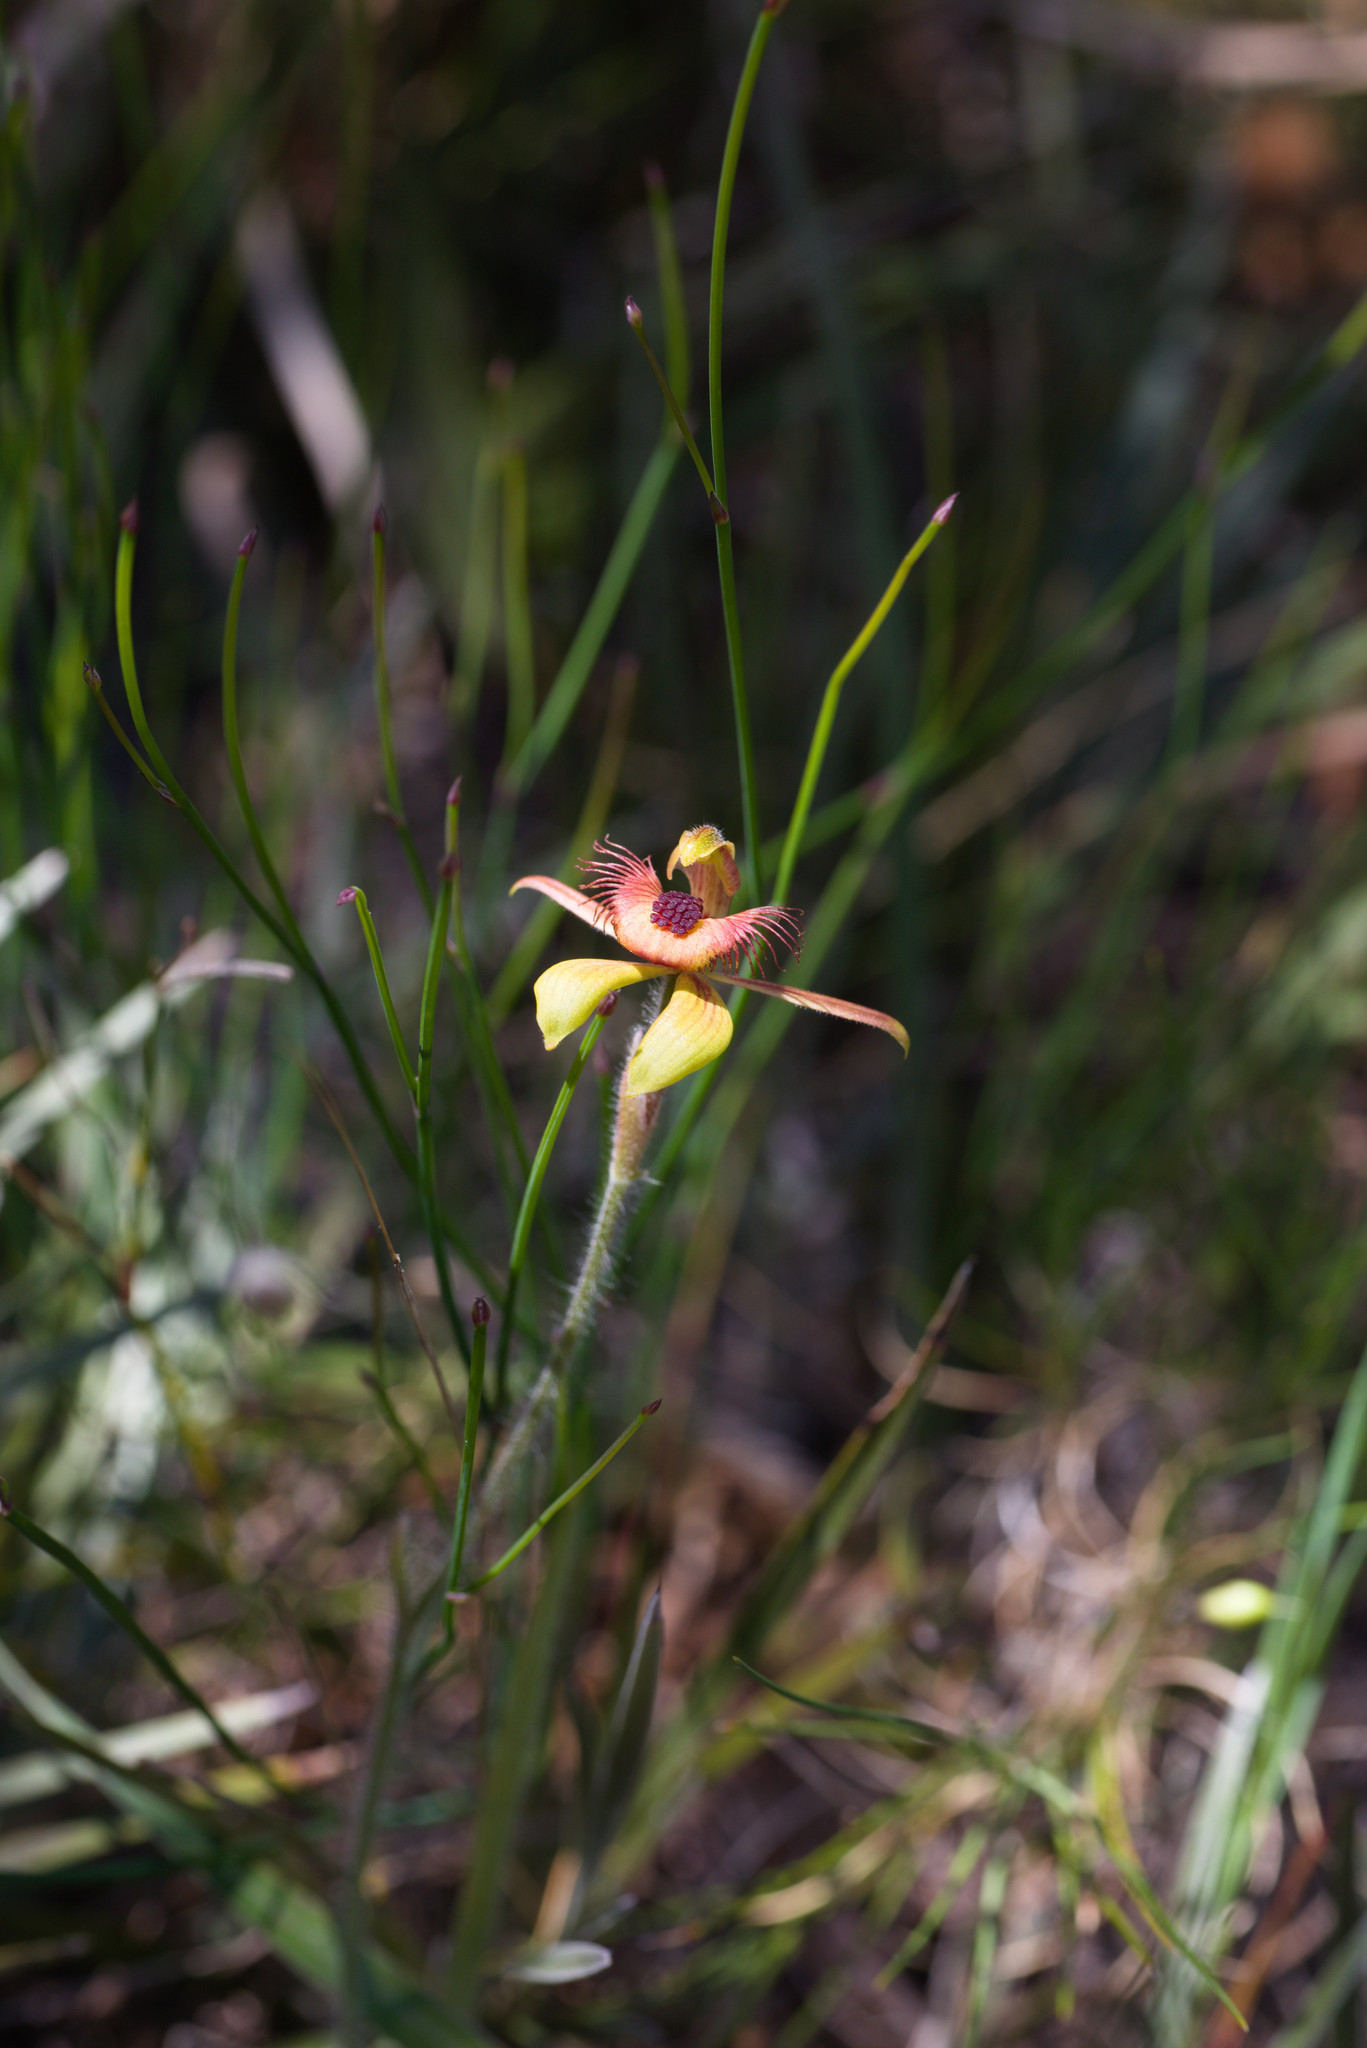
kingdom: Plantae
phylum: Tracheophyta
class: Liliopsida
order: Asparagales
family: Orchidaceae
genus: Caladenia
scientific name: Caladenia discoidea
